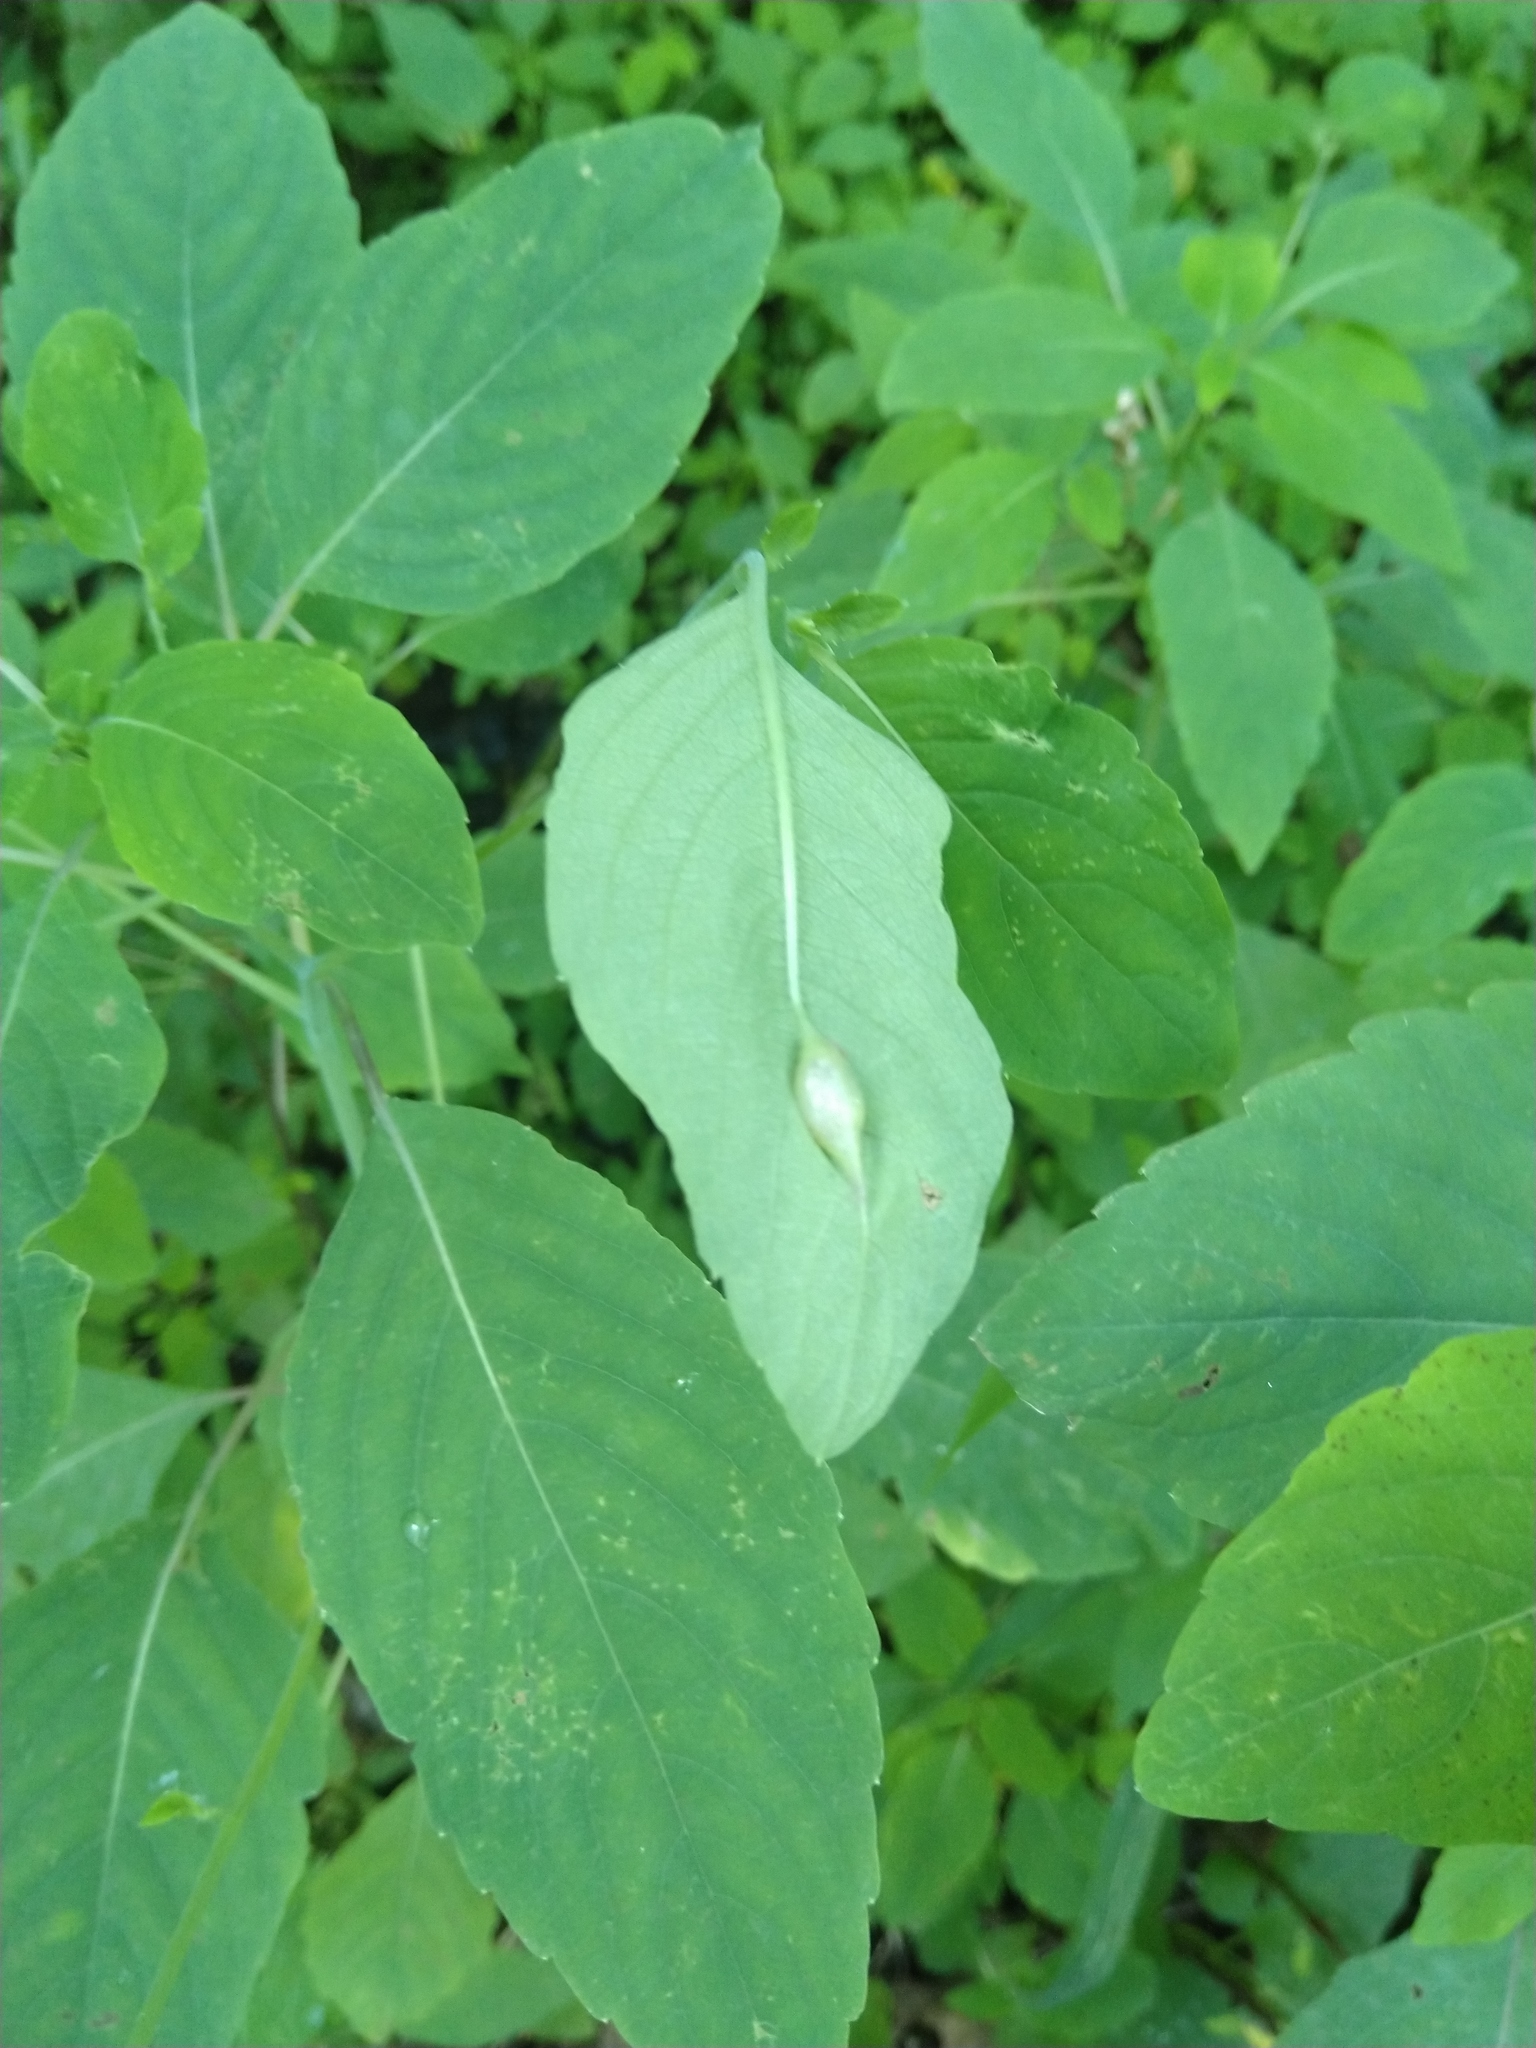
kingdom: Animalia
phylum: Arthropoda
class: Insecta
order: Diptera
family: Cecidomyiidae
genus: Neolasioptera
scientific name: Neolasioptera impatientifolia
